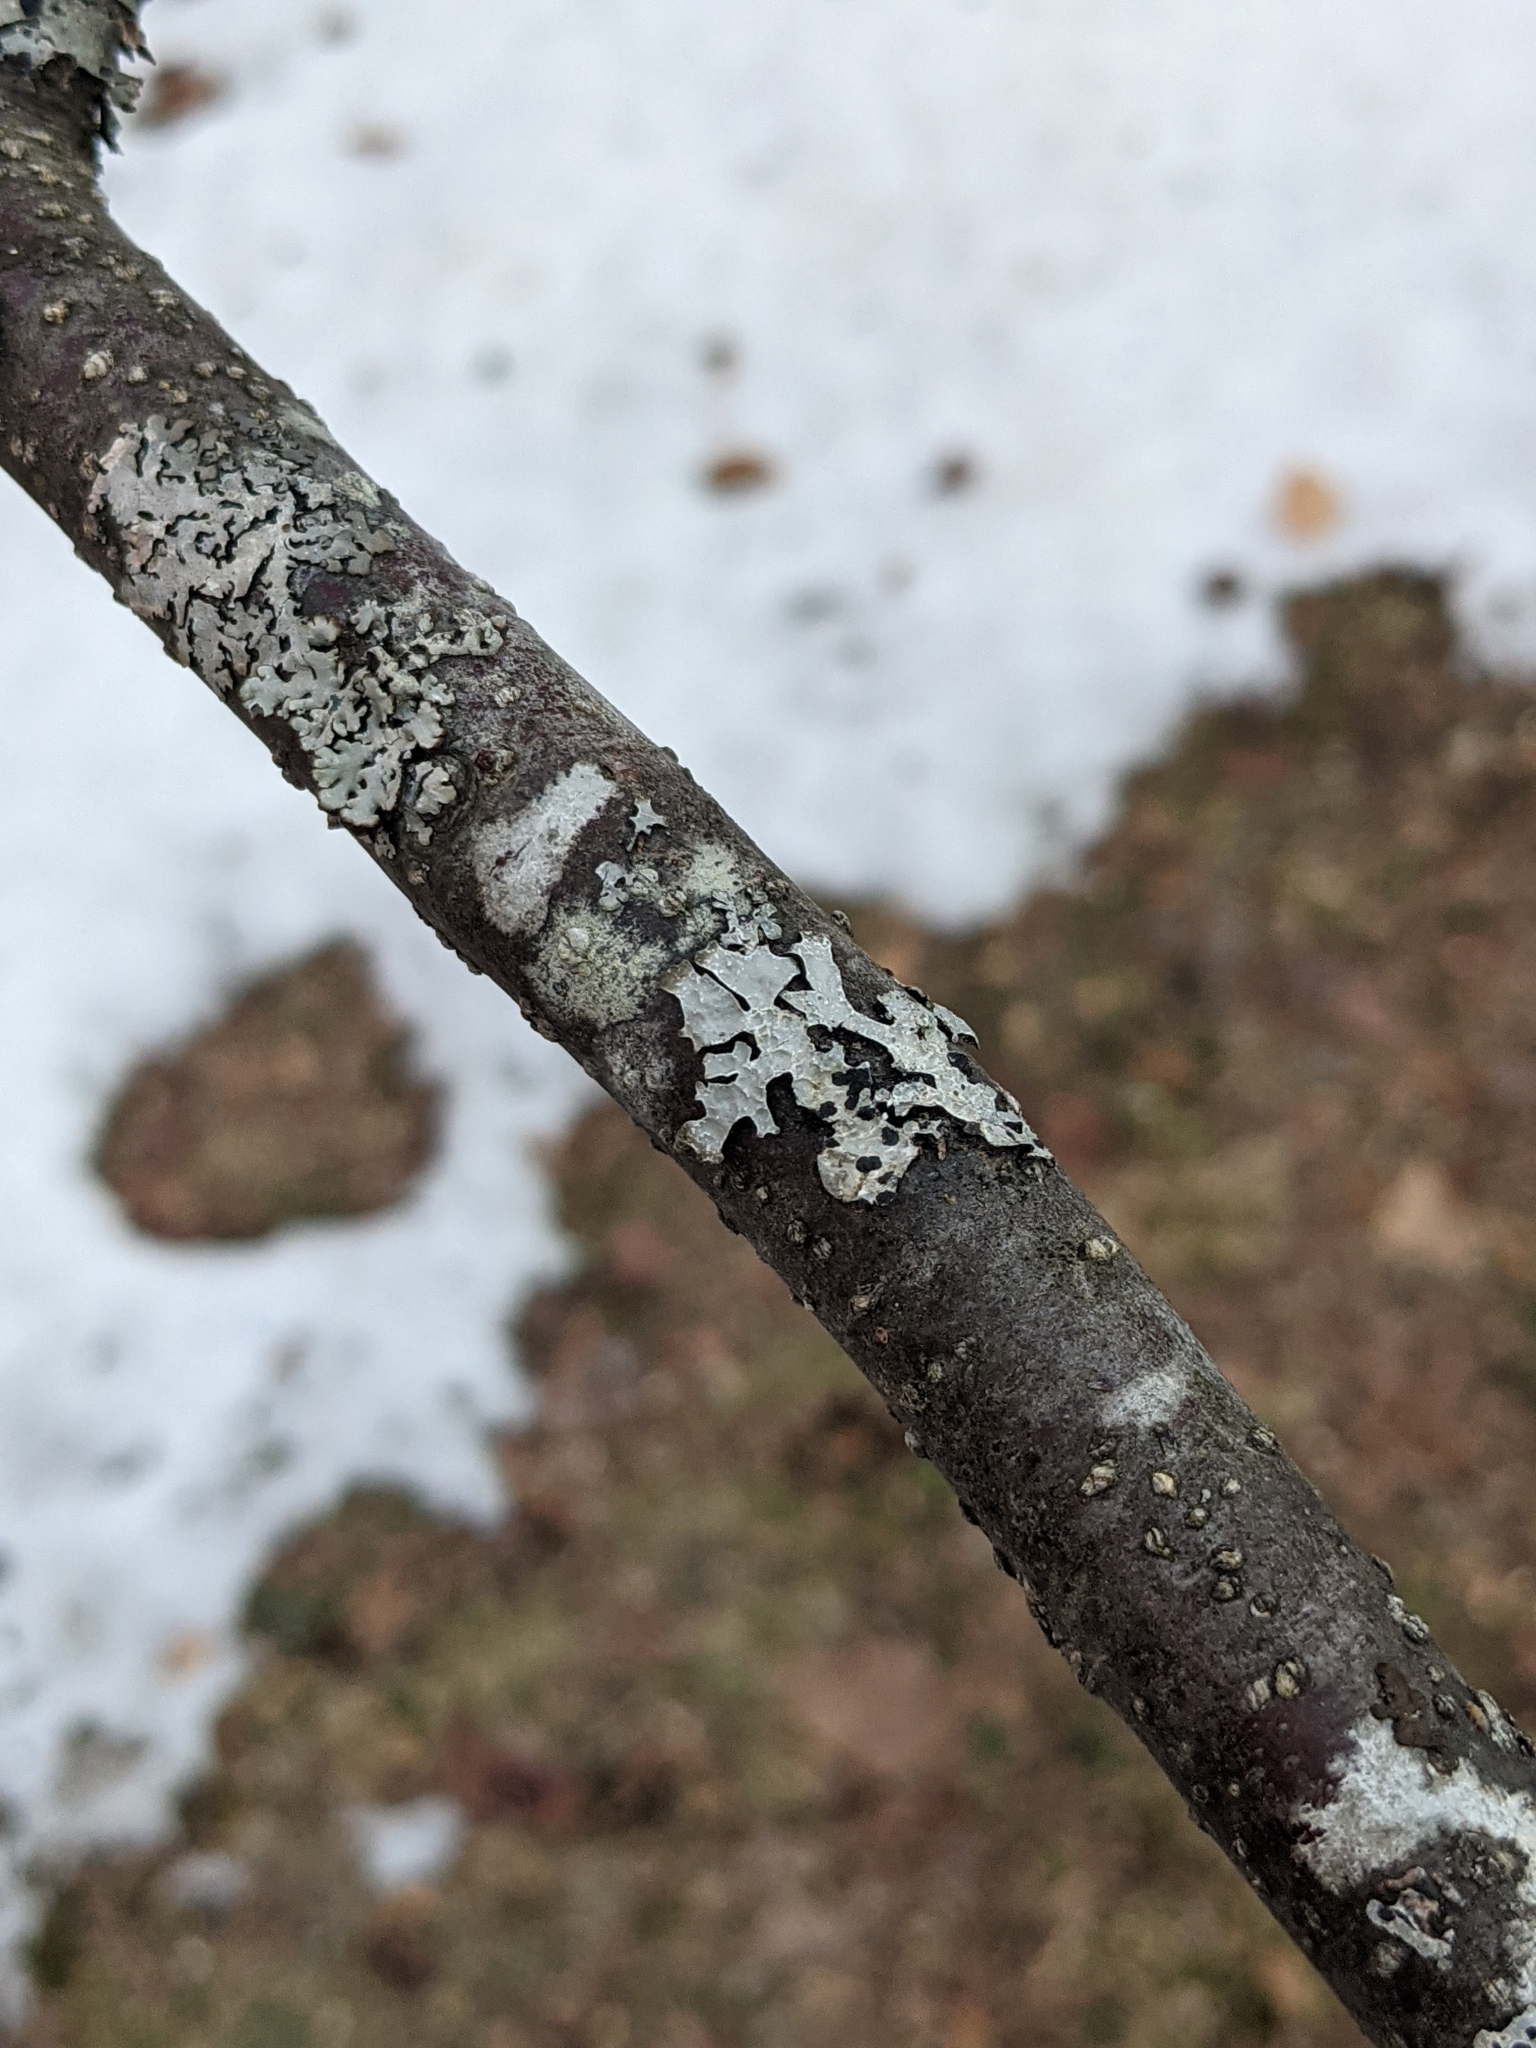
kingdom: Fungi
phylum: Ascomycota
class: Lecanoromycetes
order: Lecanorales
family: Parmeliaceae
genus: Parmelia
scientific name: Parmelia sulcata
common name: Netted shield lichen
